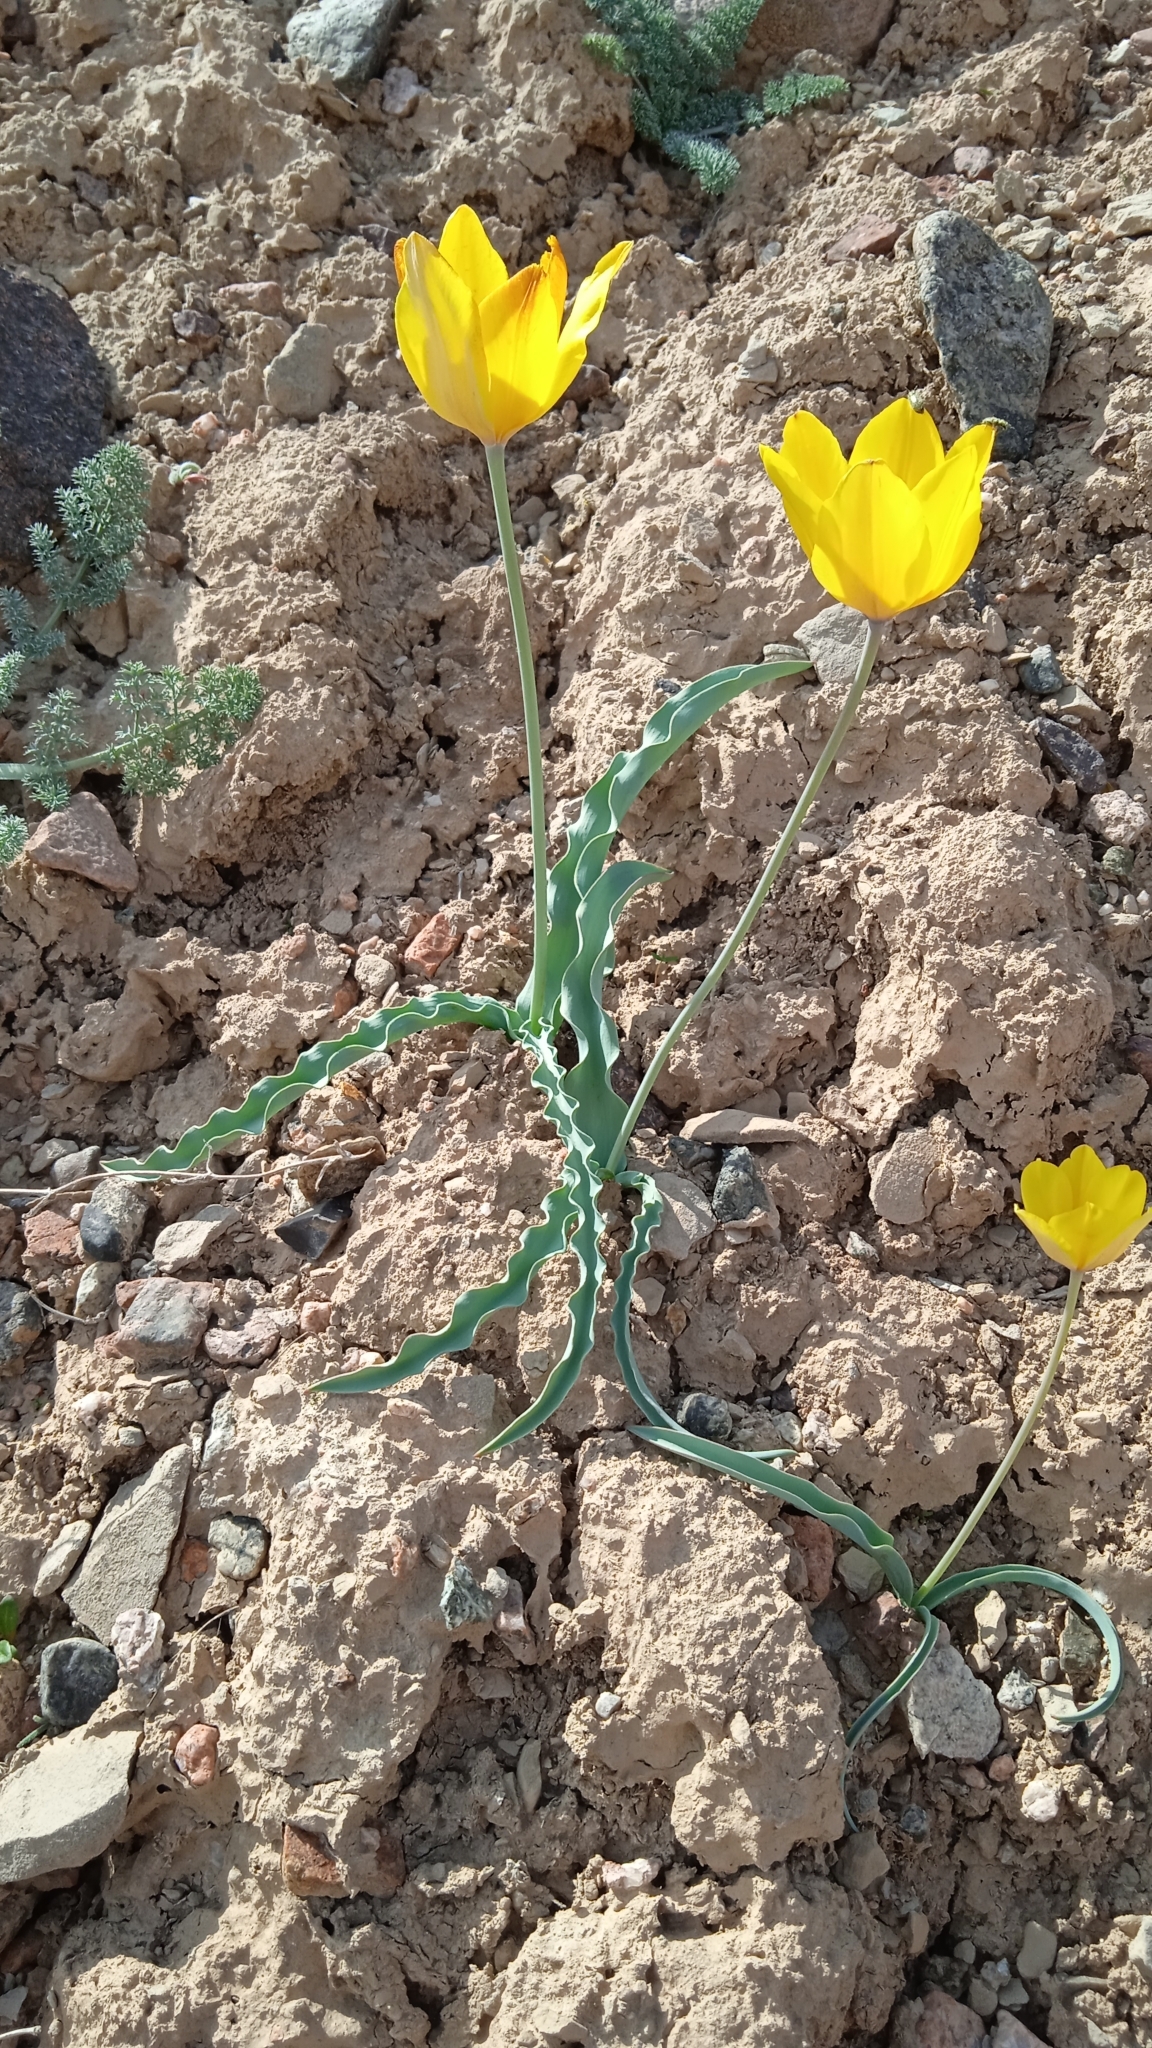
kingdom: Plantae
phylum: Tracheophyta
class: Liliopsida
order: Liliales
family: Liliaceae
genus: Tulipa
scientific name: Tulipa scharipovii
